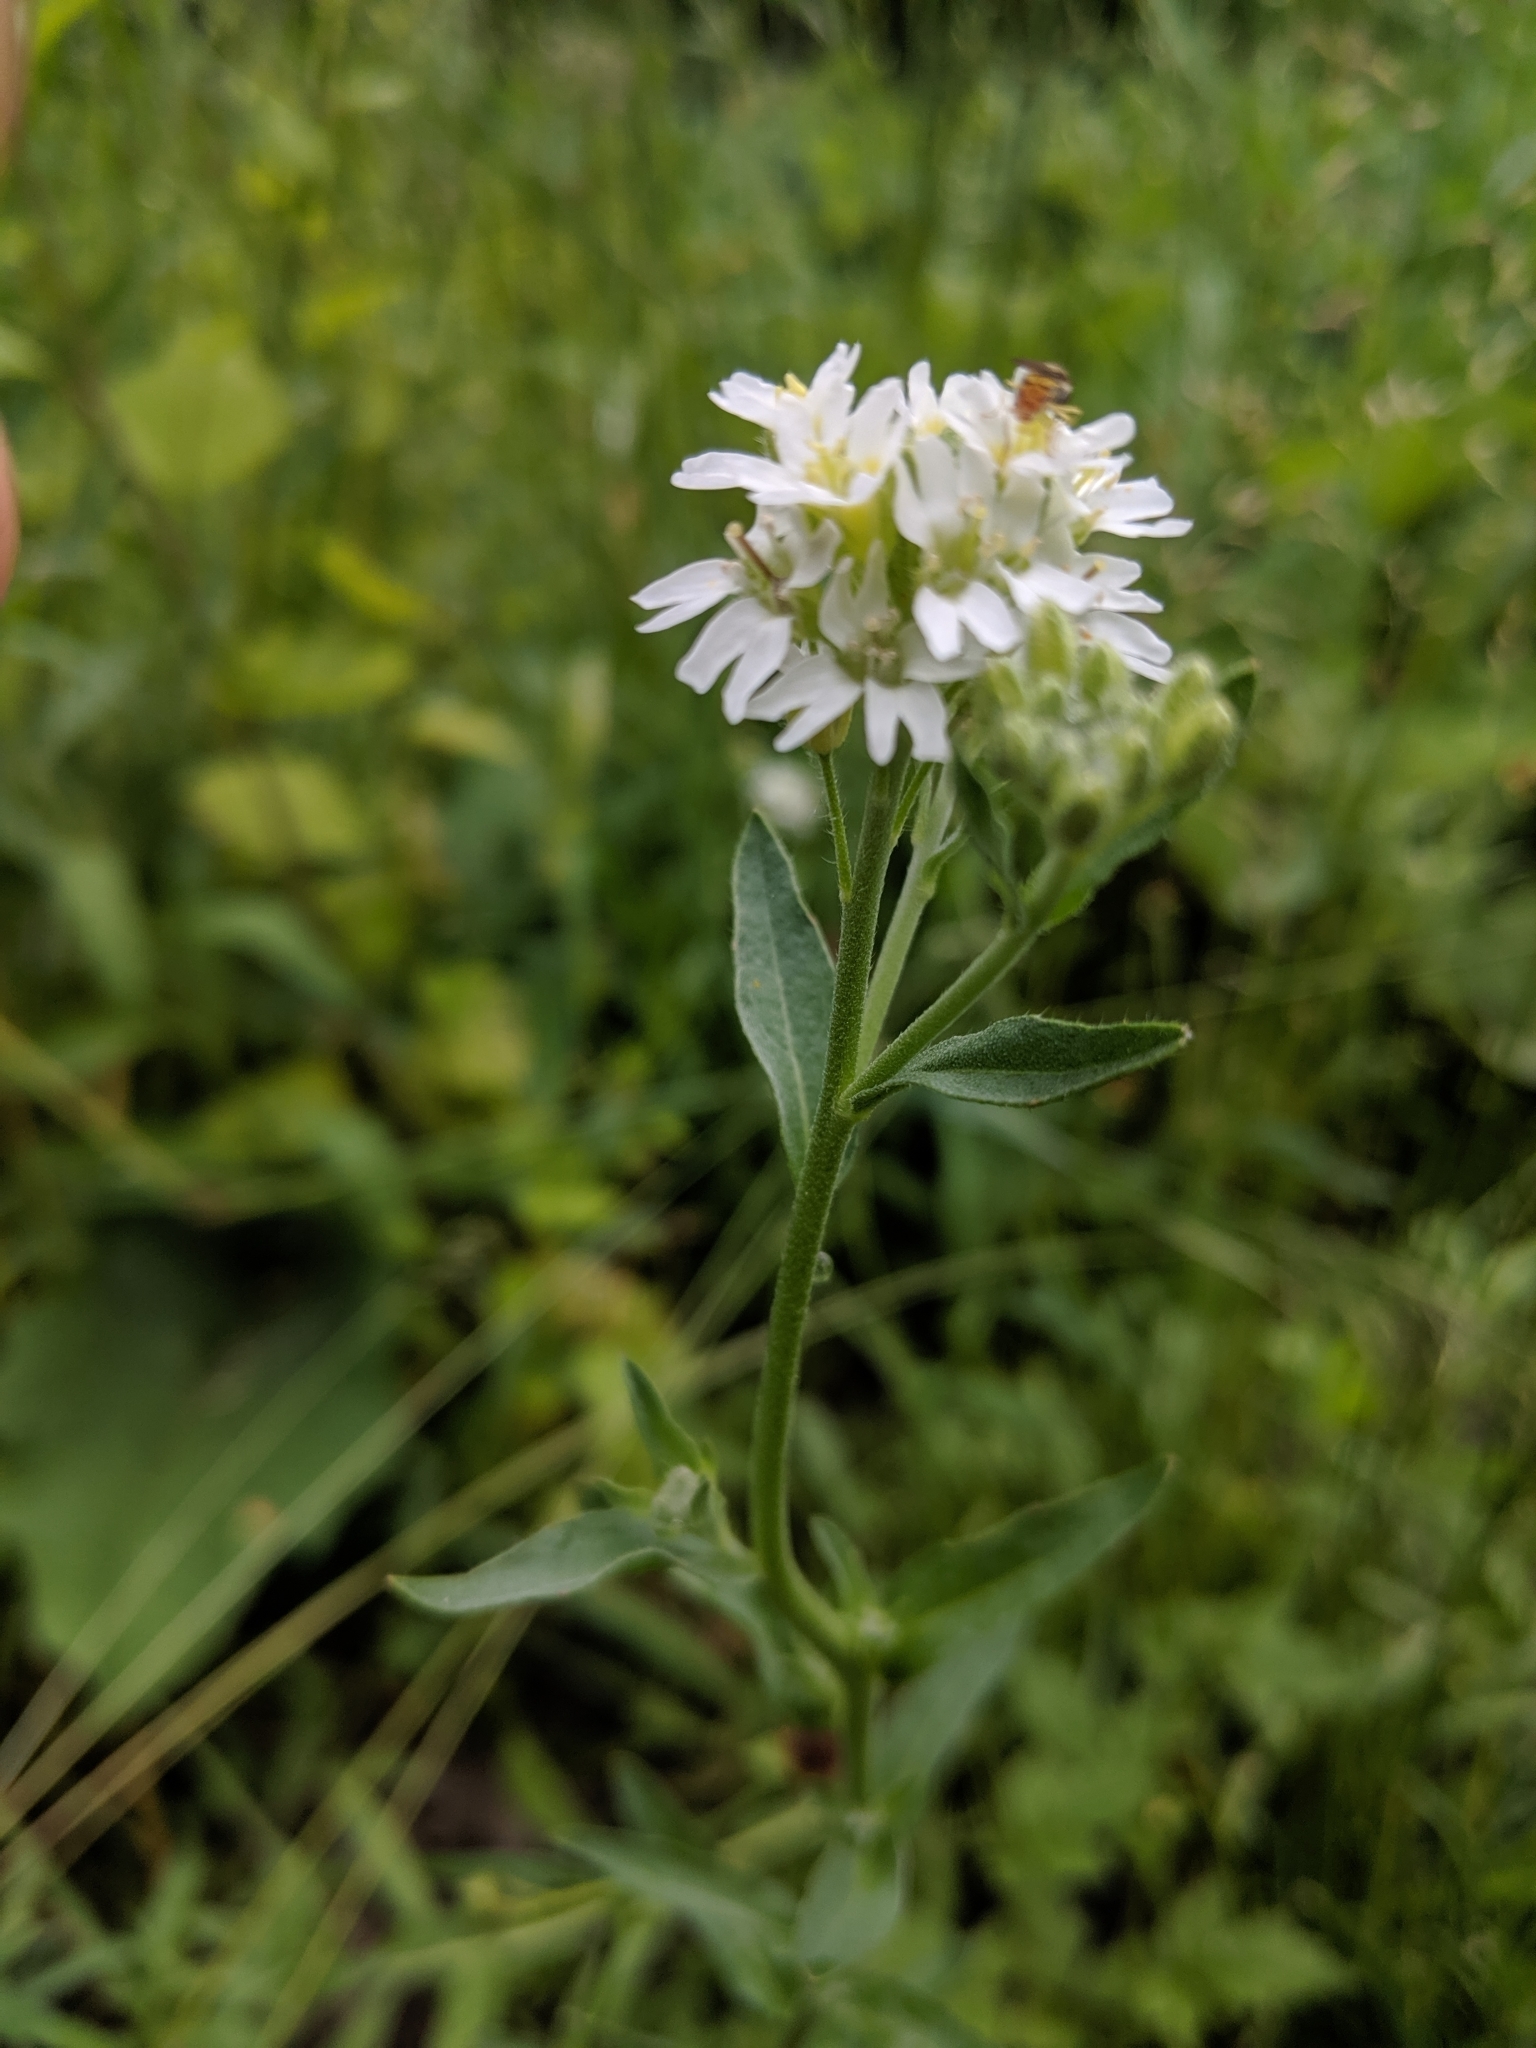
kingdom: Plantae
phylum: Tracheophyta
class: Magnoliopsida
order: Brassicales
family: Brassicaceae
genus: Berteroa
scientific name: Berteroa incana
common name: Hoary alison
